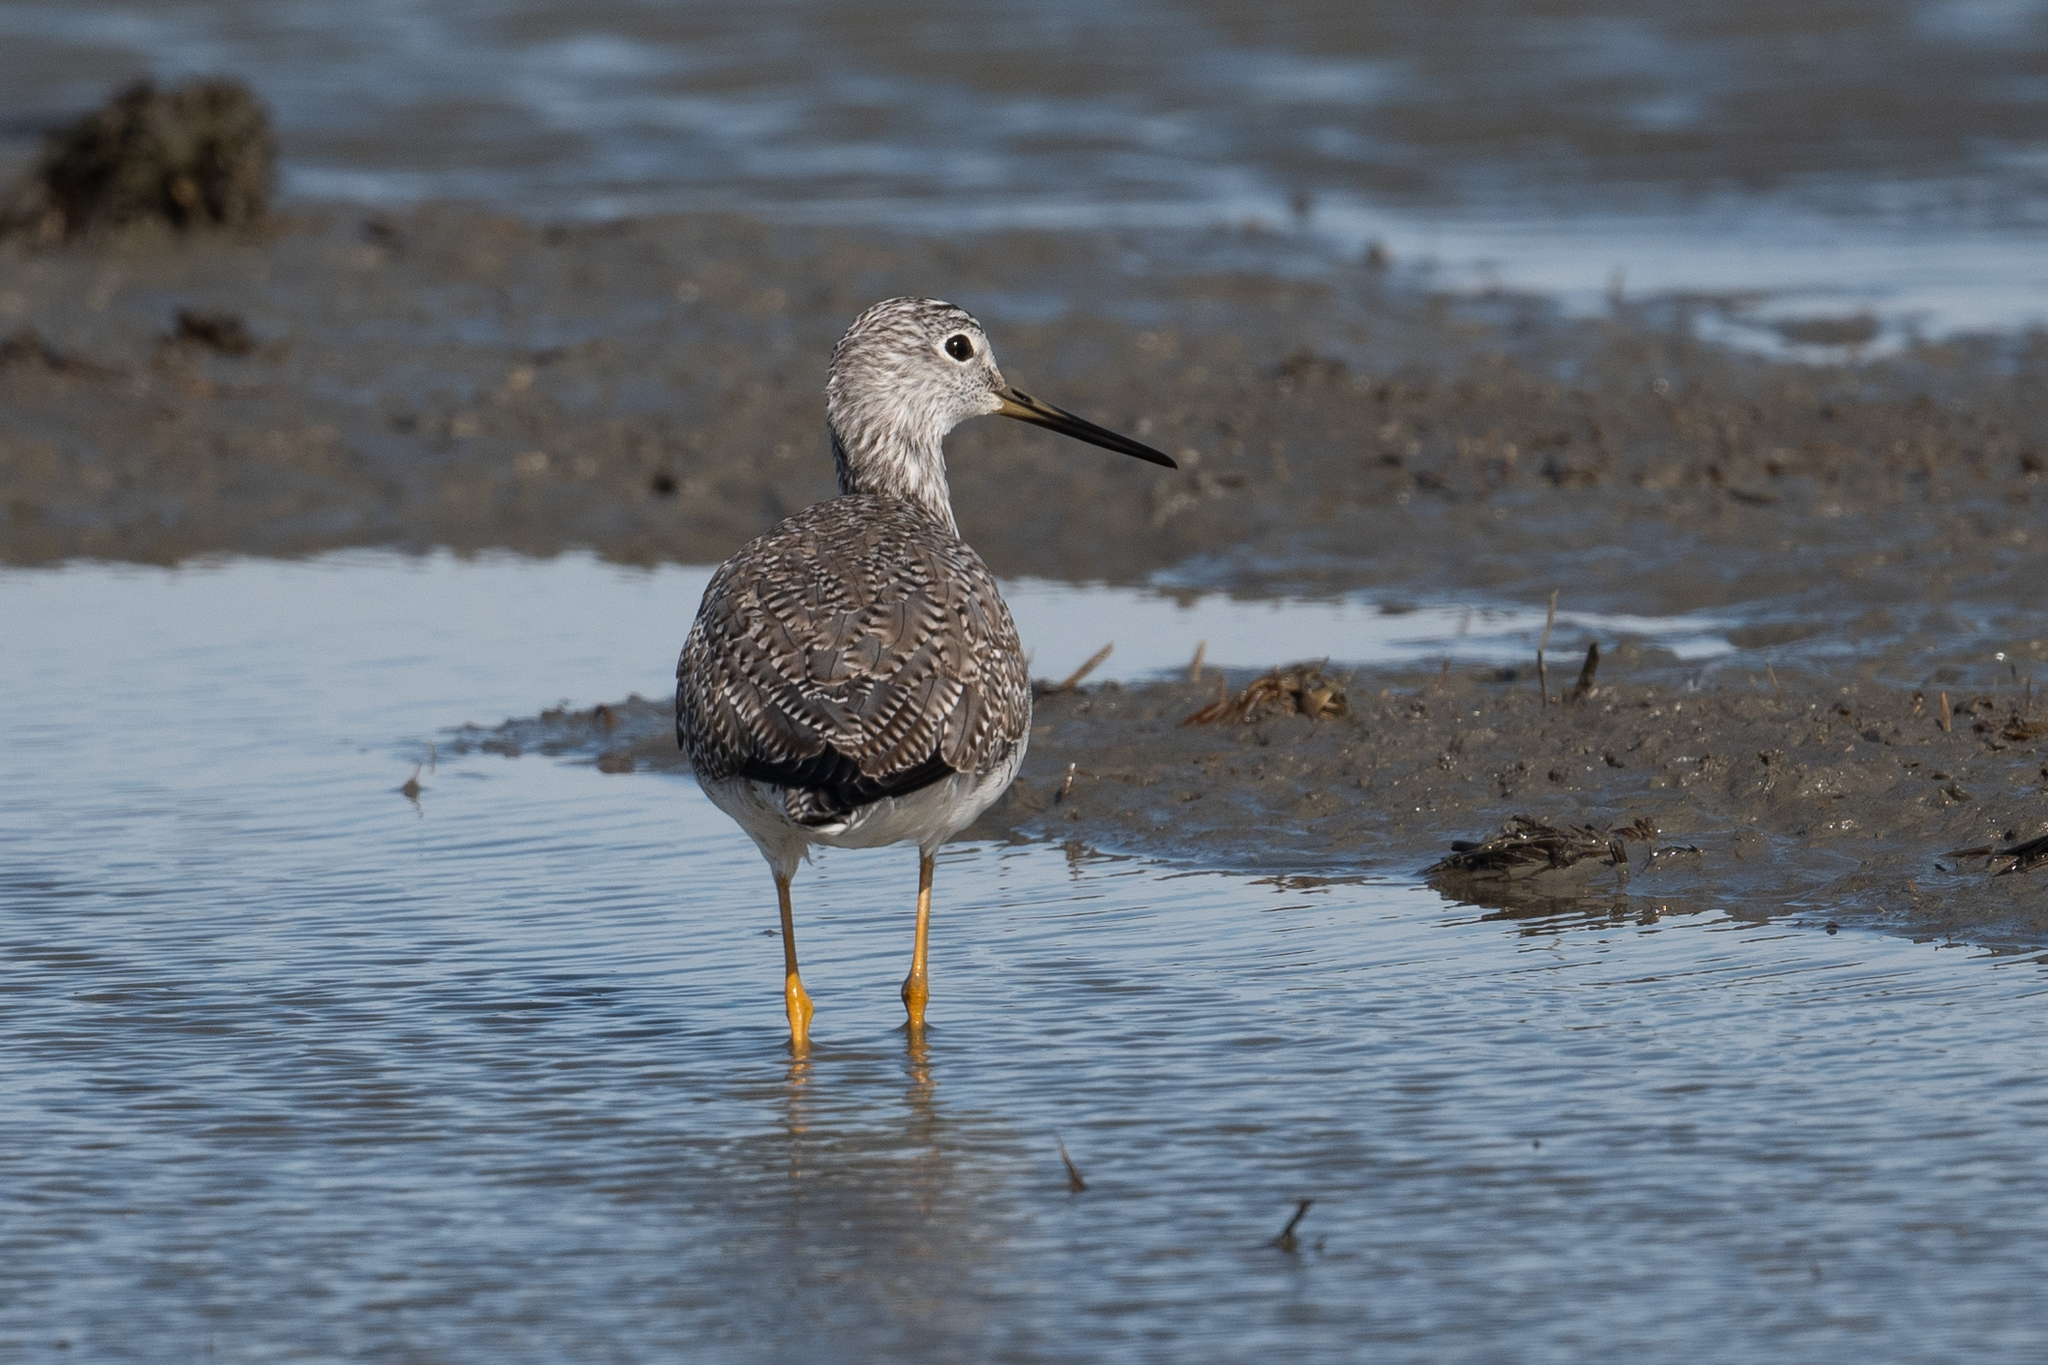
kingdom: Animalia
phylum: Chordata
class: Aves
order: Charadriiformes
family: Scolopacidae
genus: Tringa
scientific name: Tringa melanoleuca
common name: Greater yellowlegs
